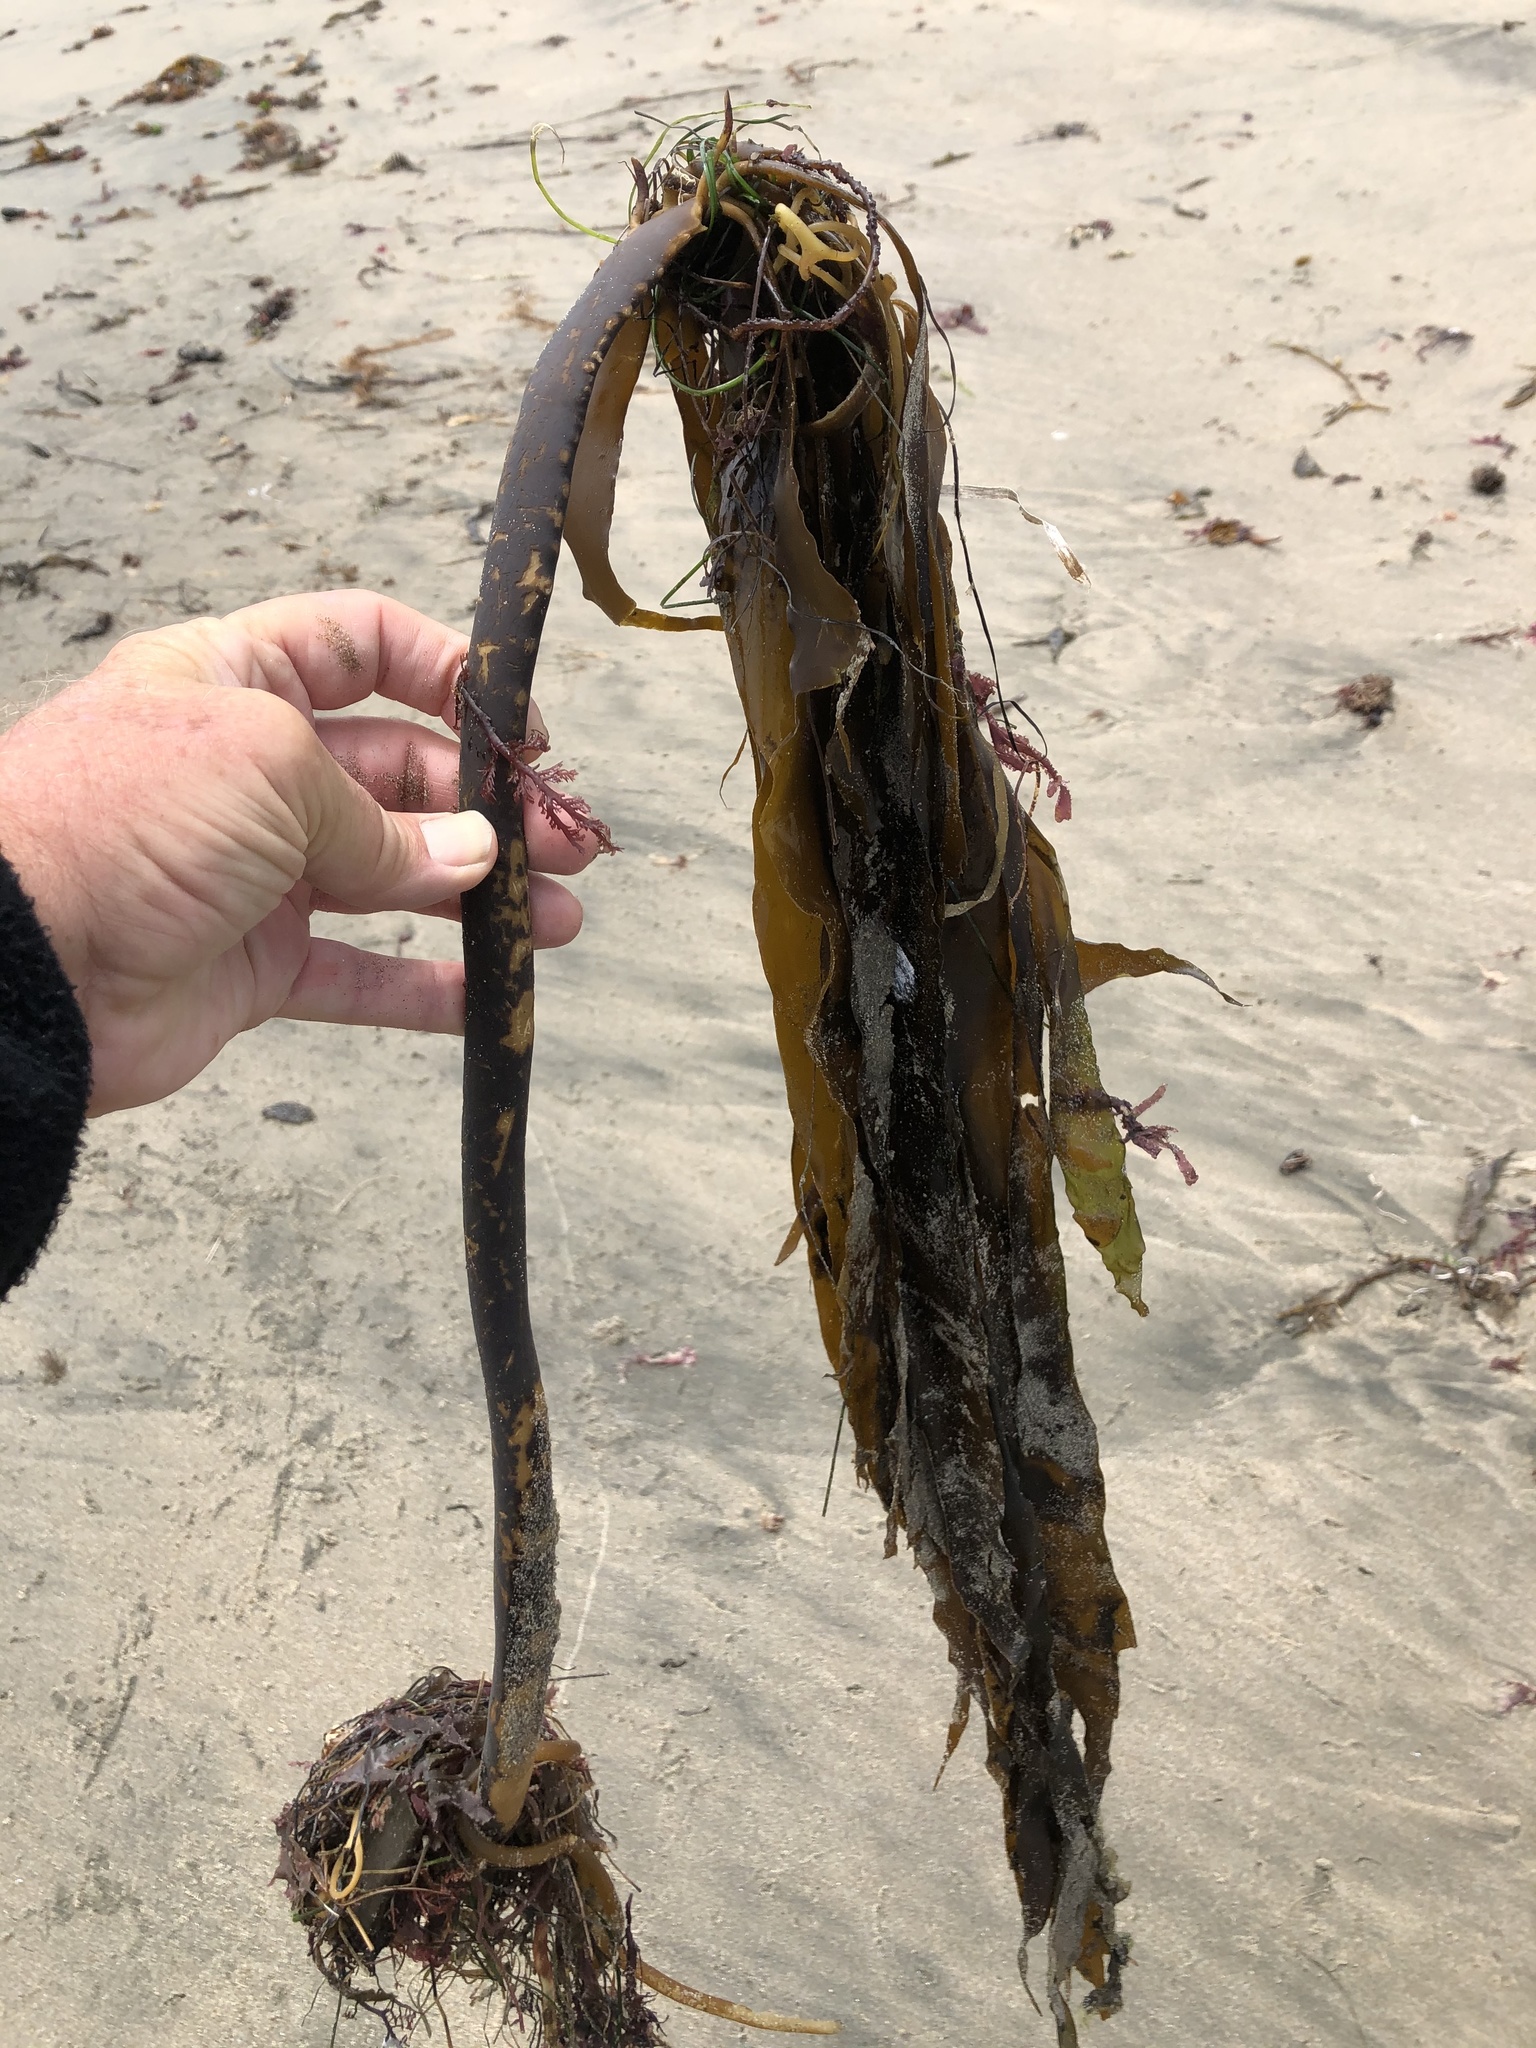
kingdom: Chromista
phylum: Ochrophyta
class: Phaeophyceae
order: Laminariales
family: Alariaceae
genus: Pterygophora
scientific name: Pterygophora californica
